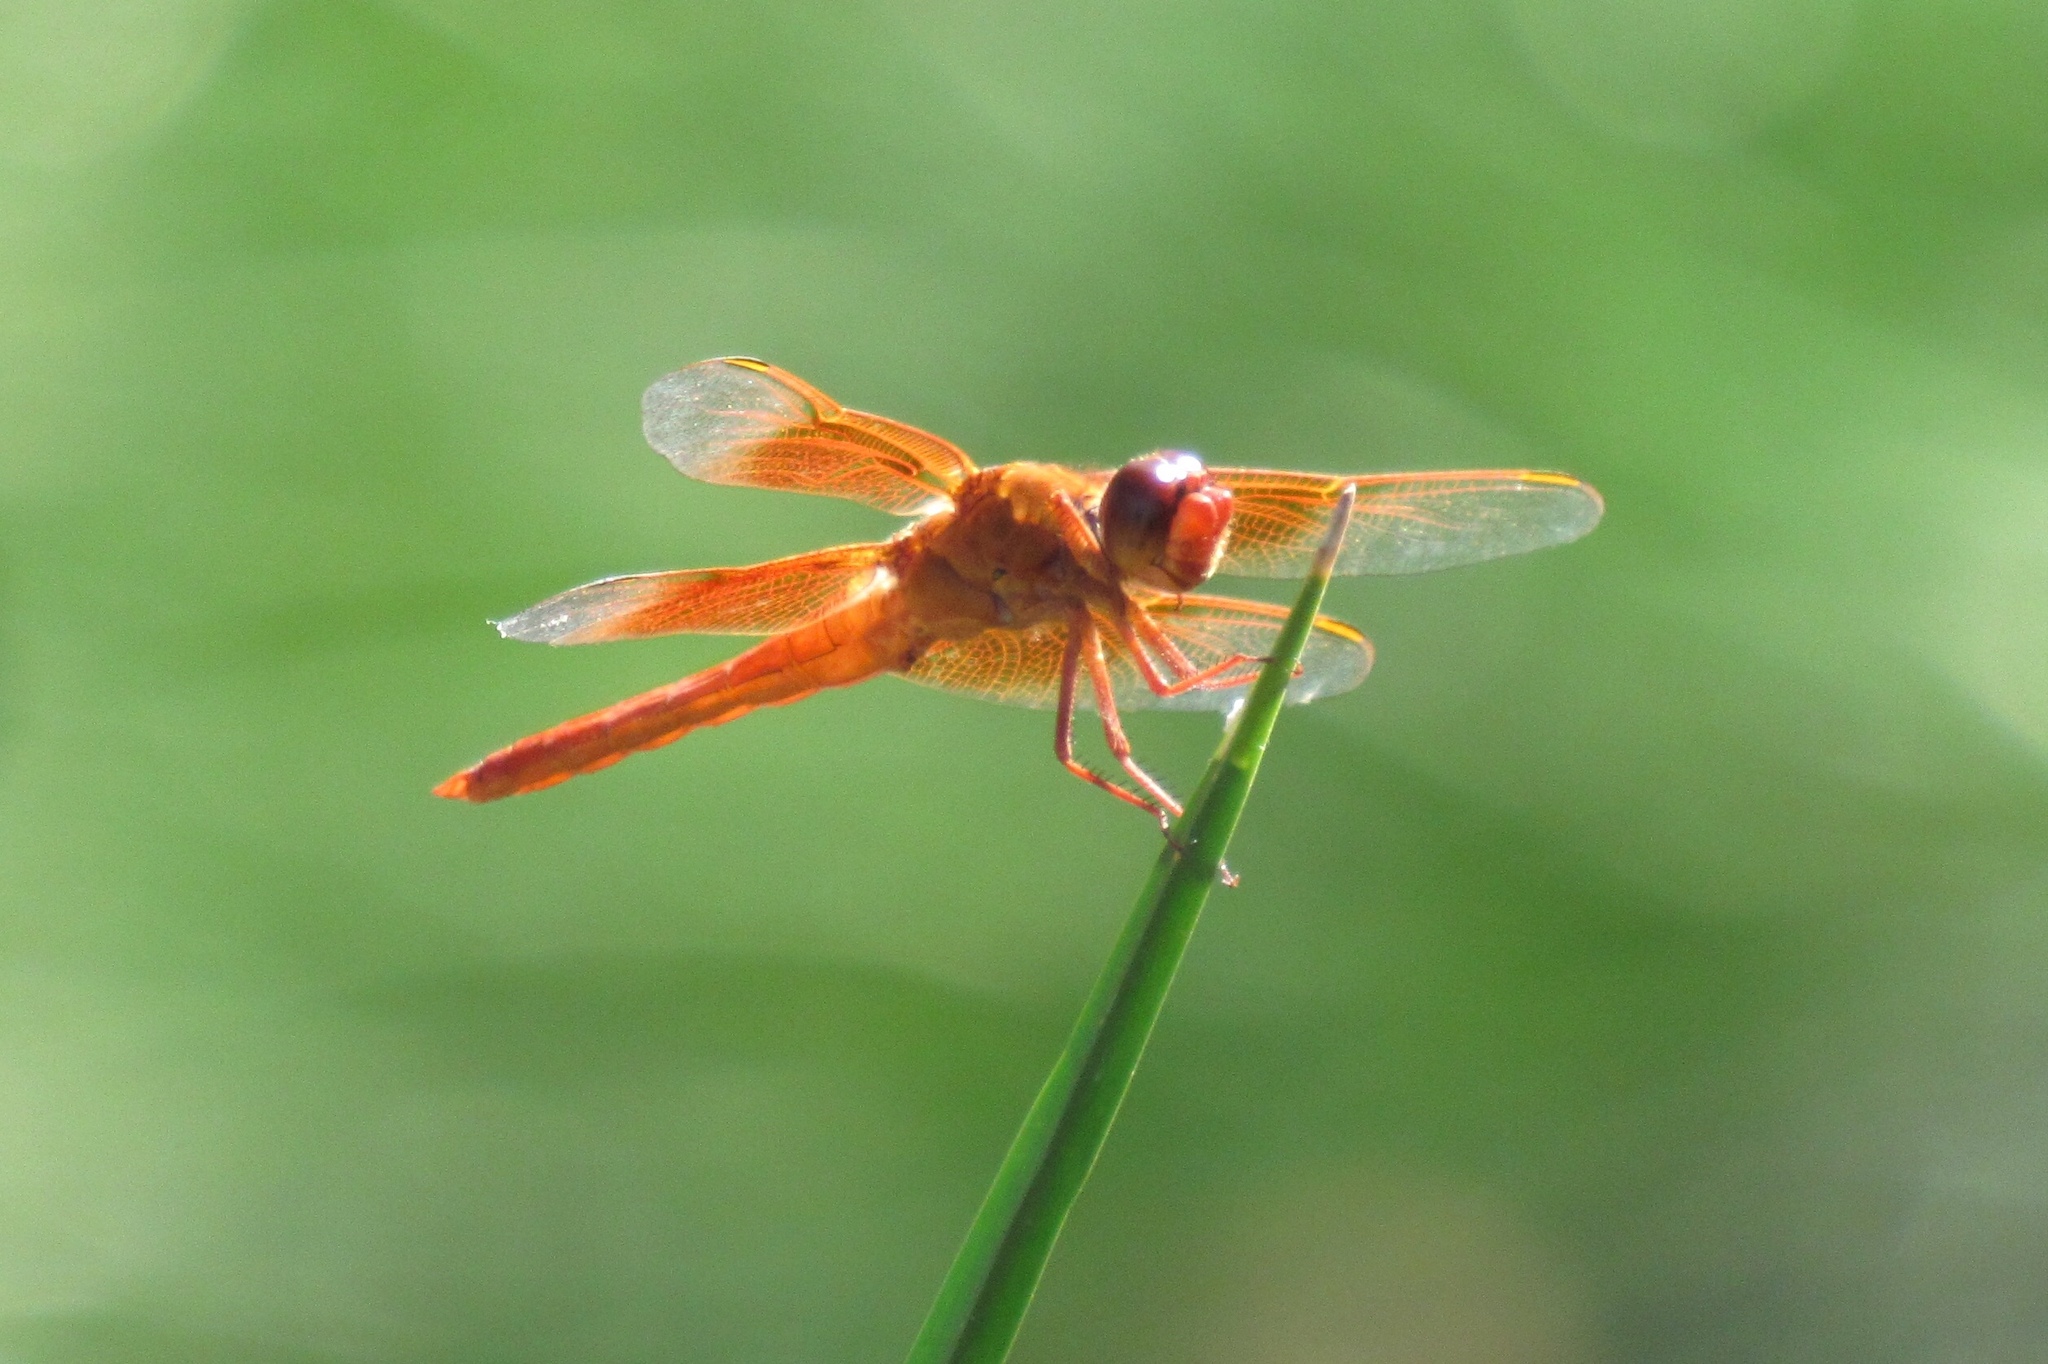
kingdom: Animalia
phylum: Arthropoda
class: Insecta
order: Odonata
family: Libellulidae
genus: Libellula
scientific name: Libellula saturata
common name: Flame skimmer
